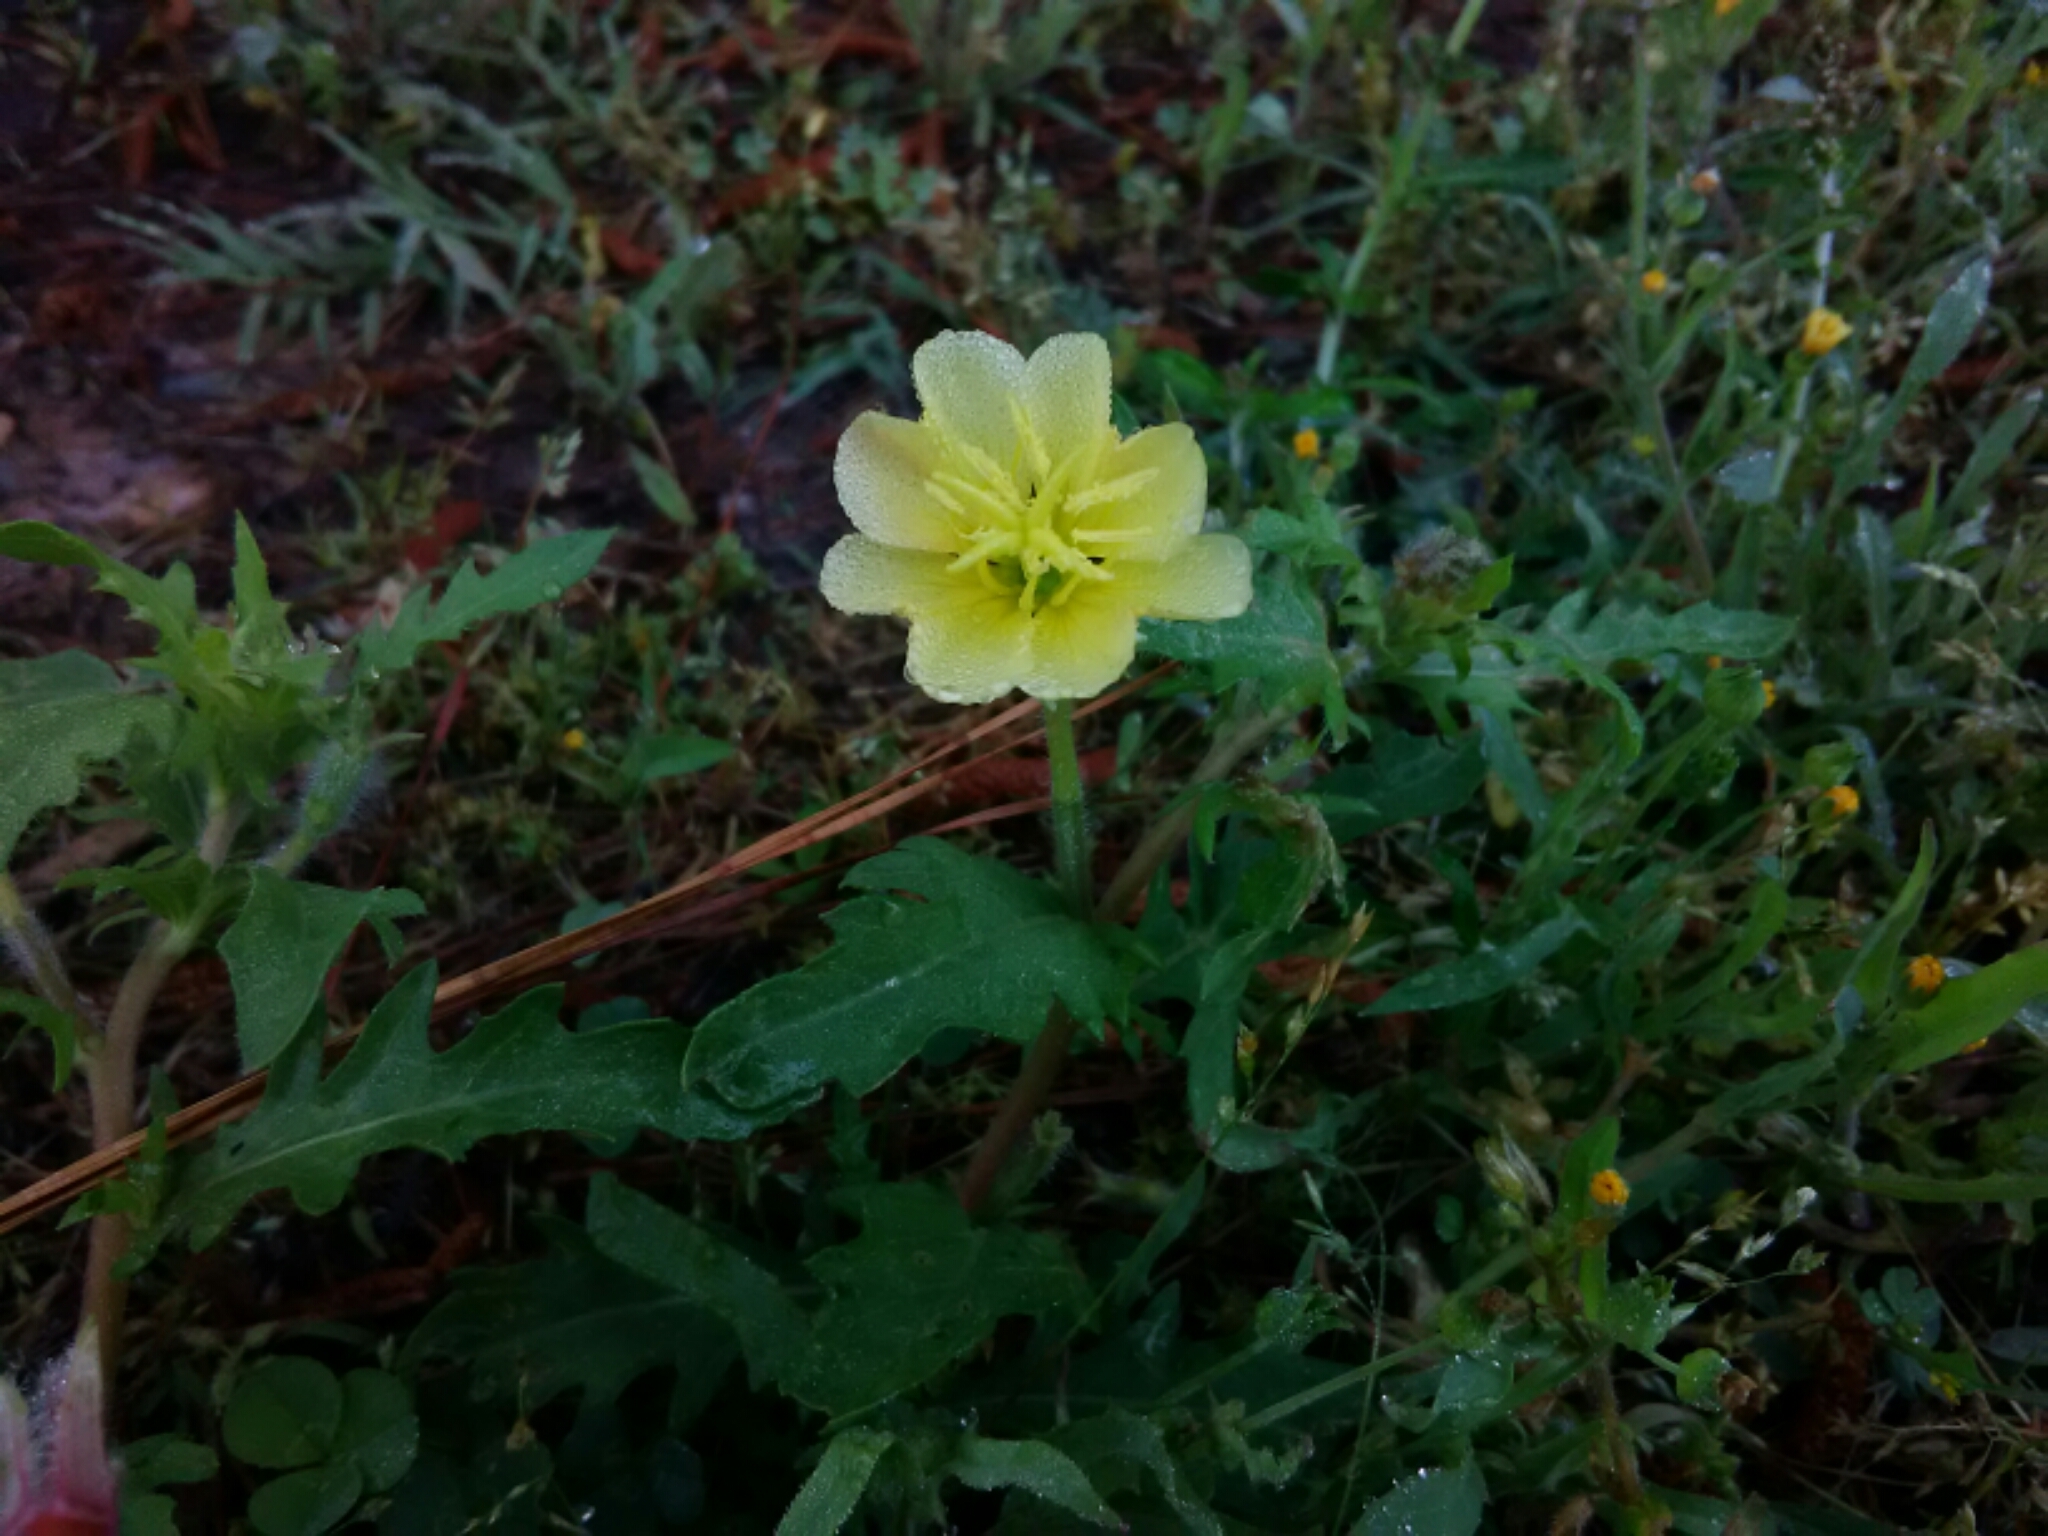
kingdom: Plantae
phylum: Tracheophyta
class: Magnoliopsida
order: Myrtales
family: Onagraceae
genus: Oenothera
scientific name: Oenothera laciniata
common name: Cut-leaved evening-primrose
